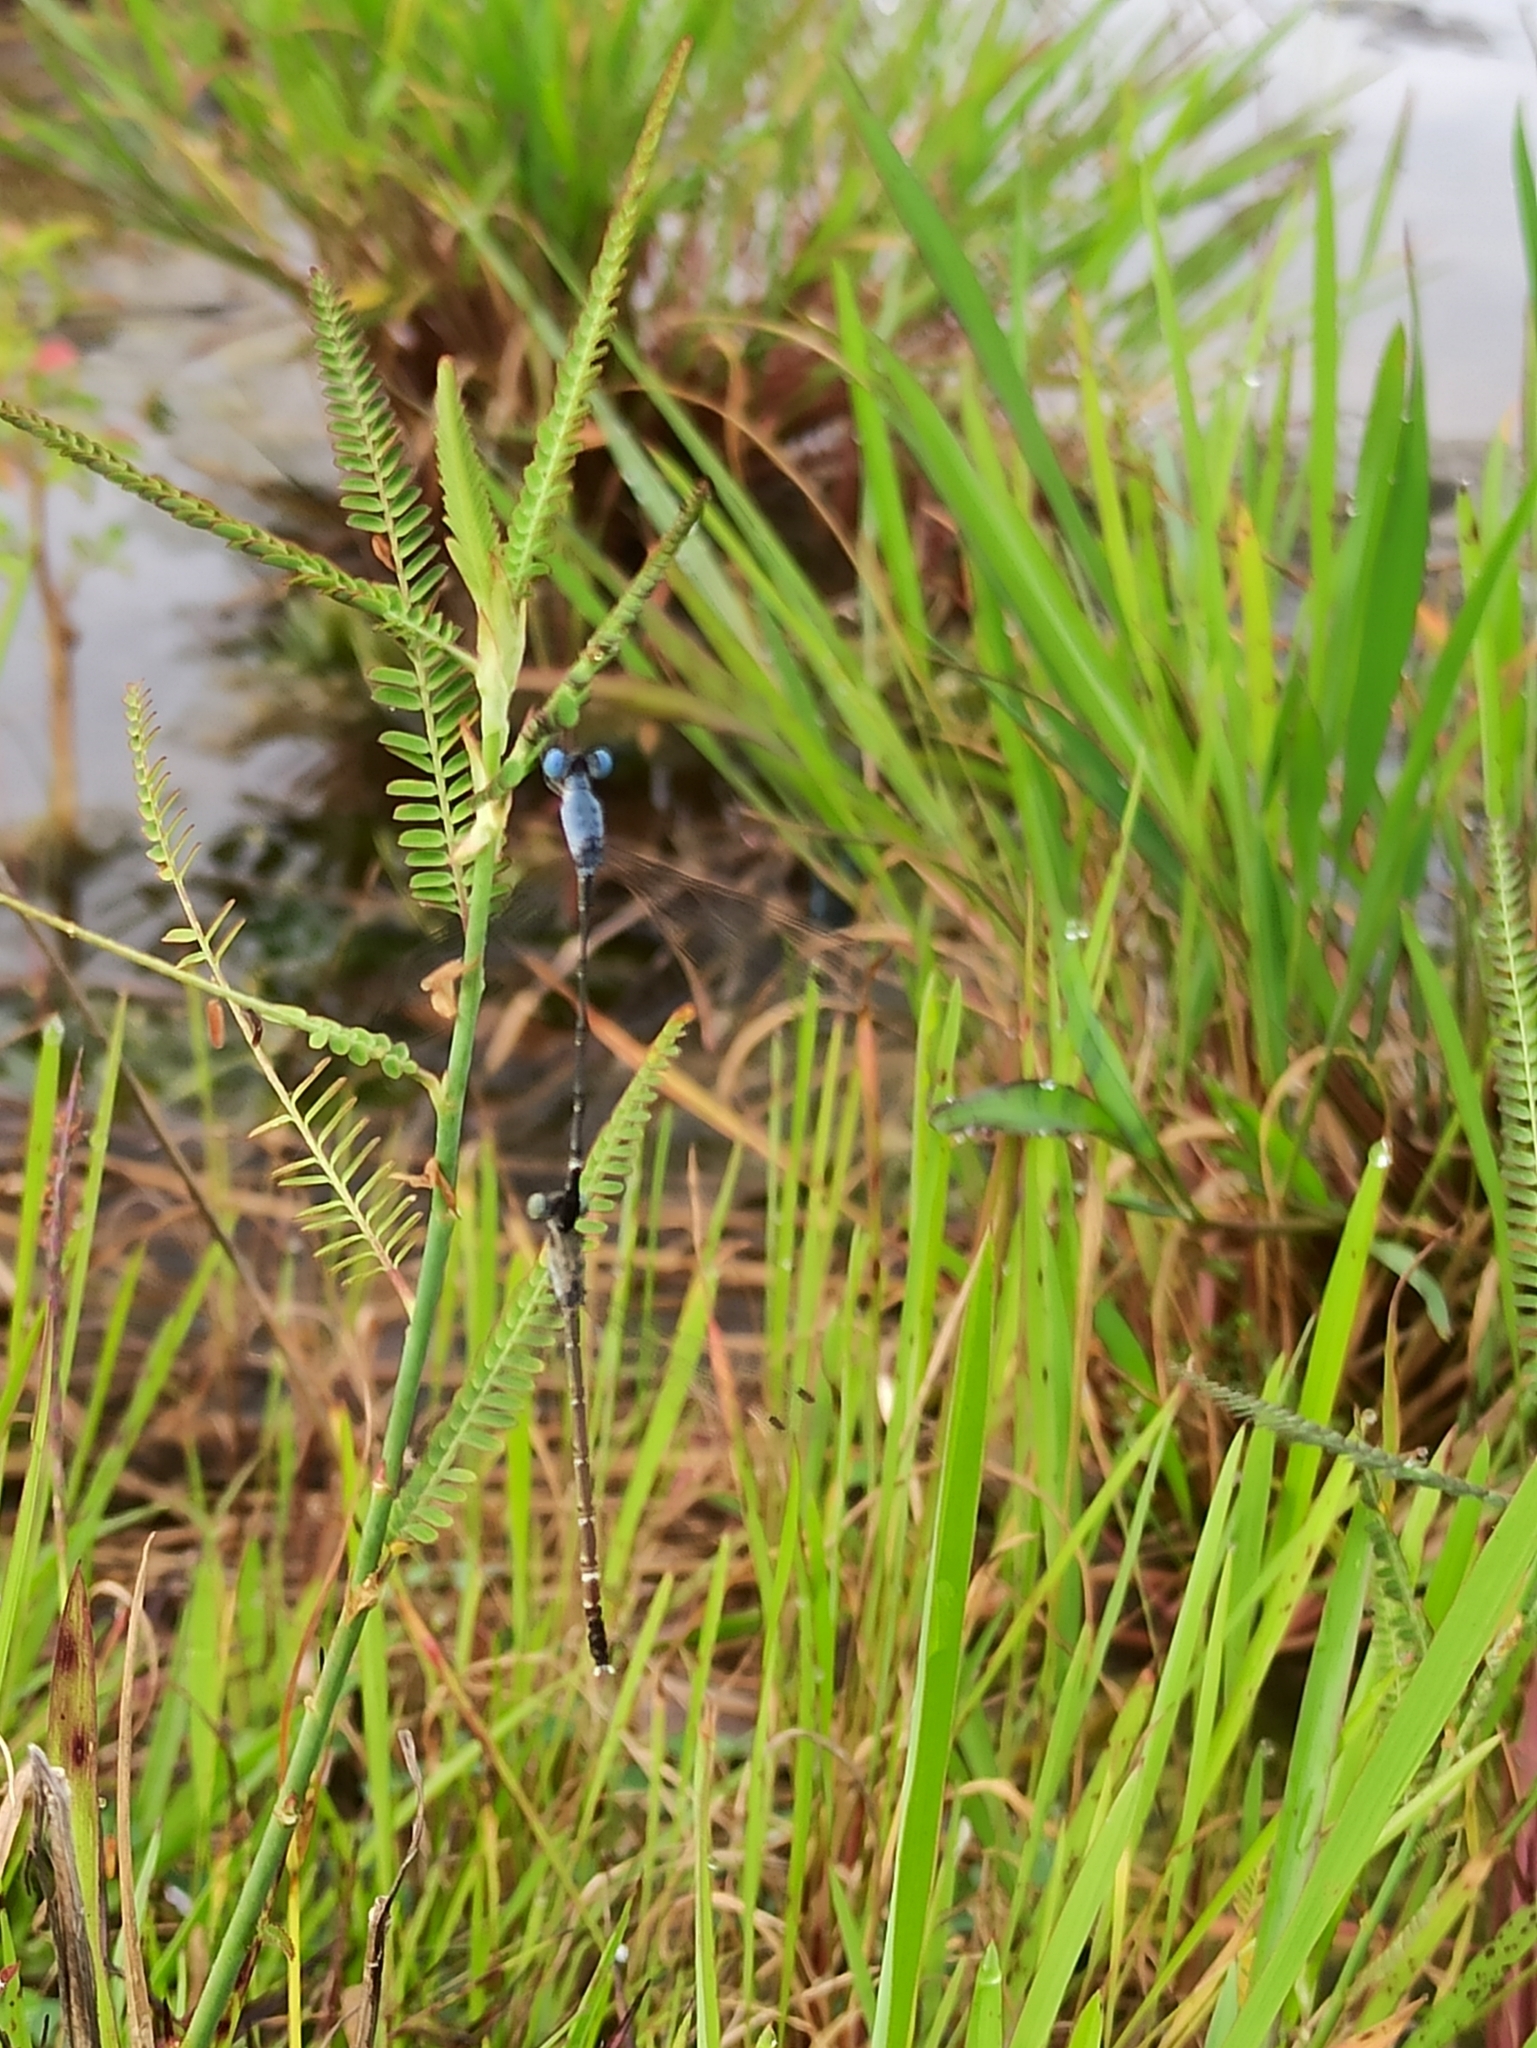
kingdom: Animalia
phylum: Arthropoda
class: Insecta
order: Odonata
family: Lestidae
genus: Lestes
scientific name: Lestes praemorsus
